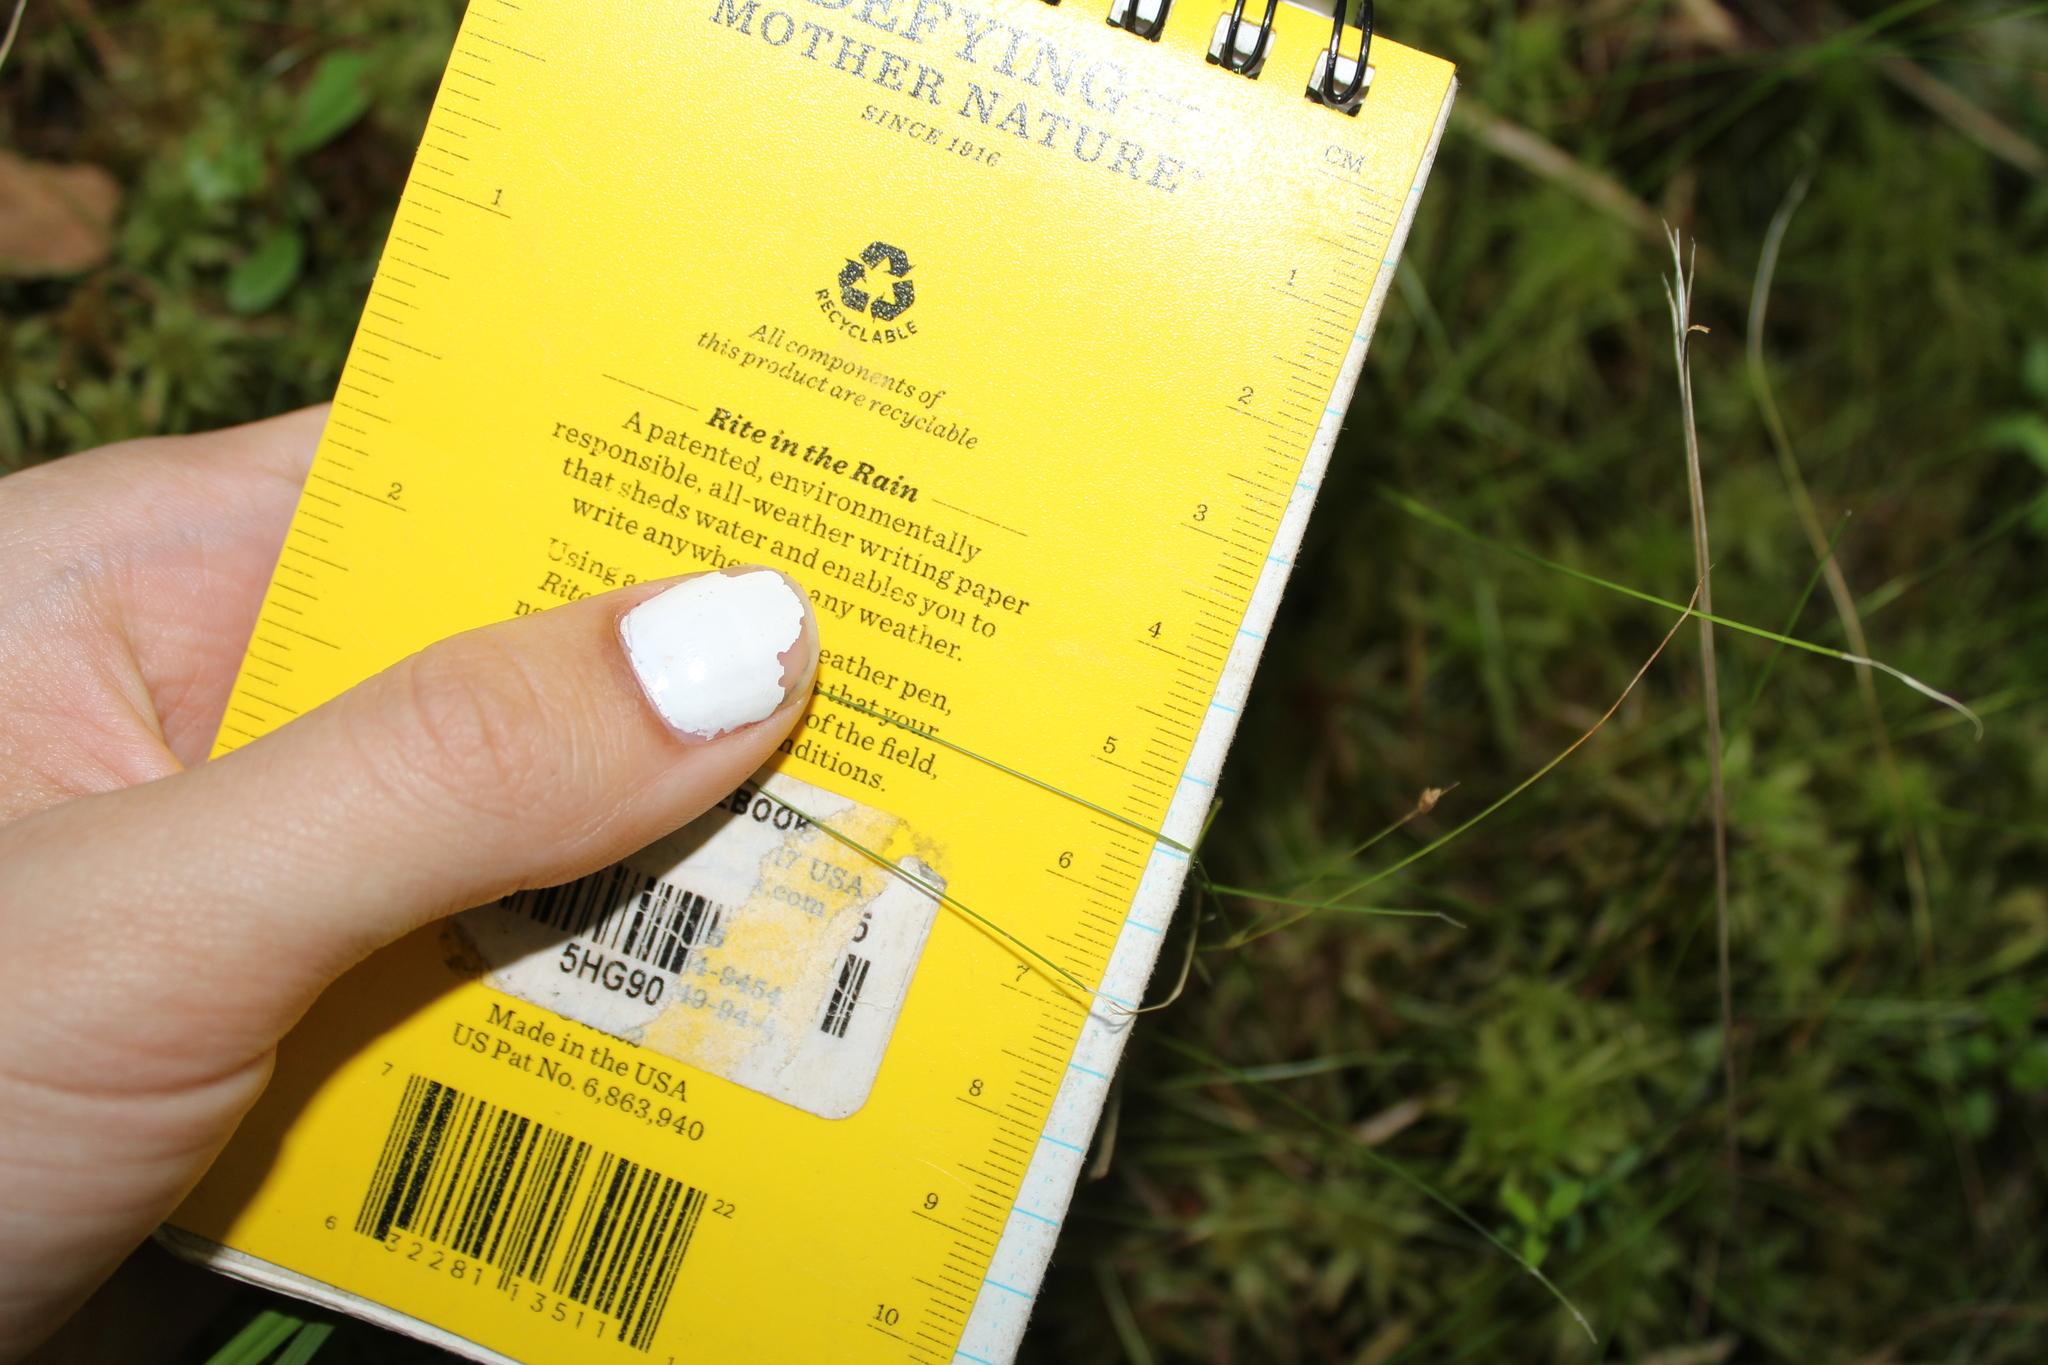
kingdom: Plantae
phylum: Tracheophyta
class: Liliopsida
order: Poales
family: Cyperaceae
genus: Carex
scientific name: Carex trisperma
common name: Three-seeded sedge
